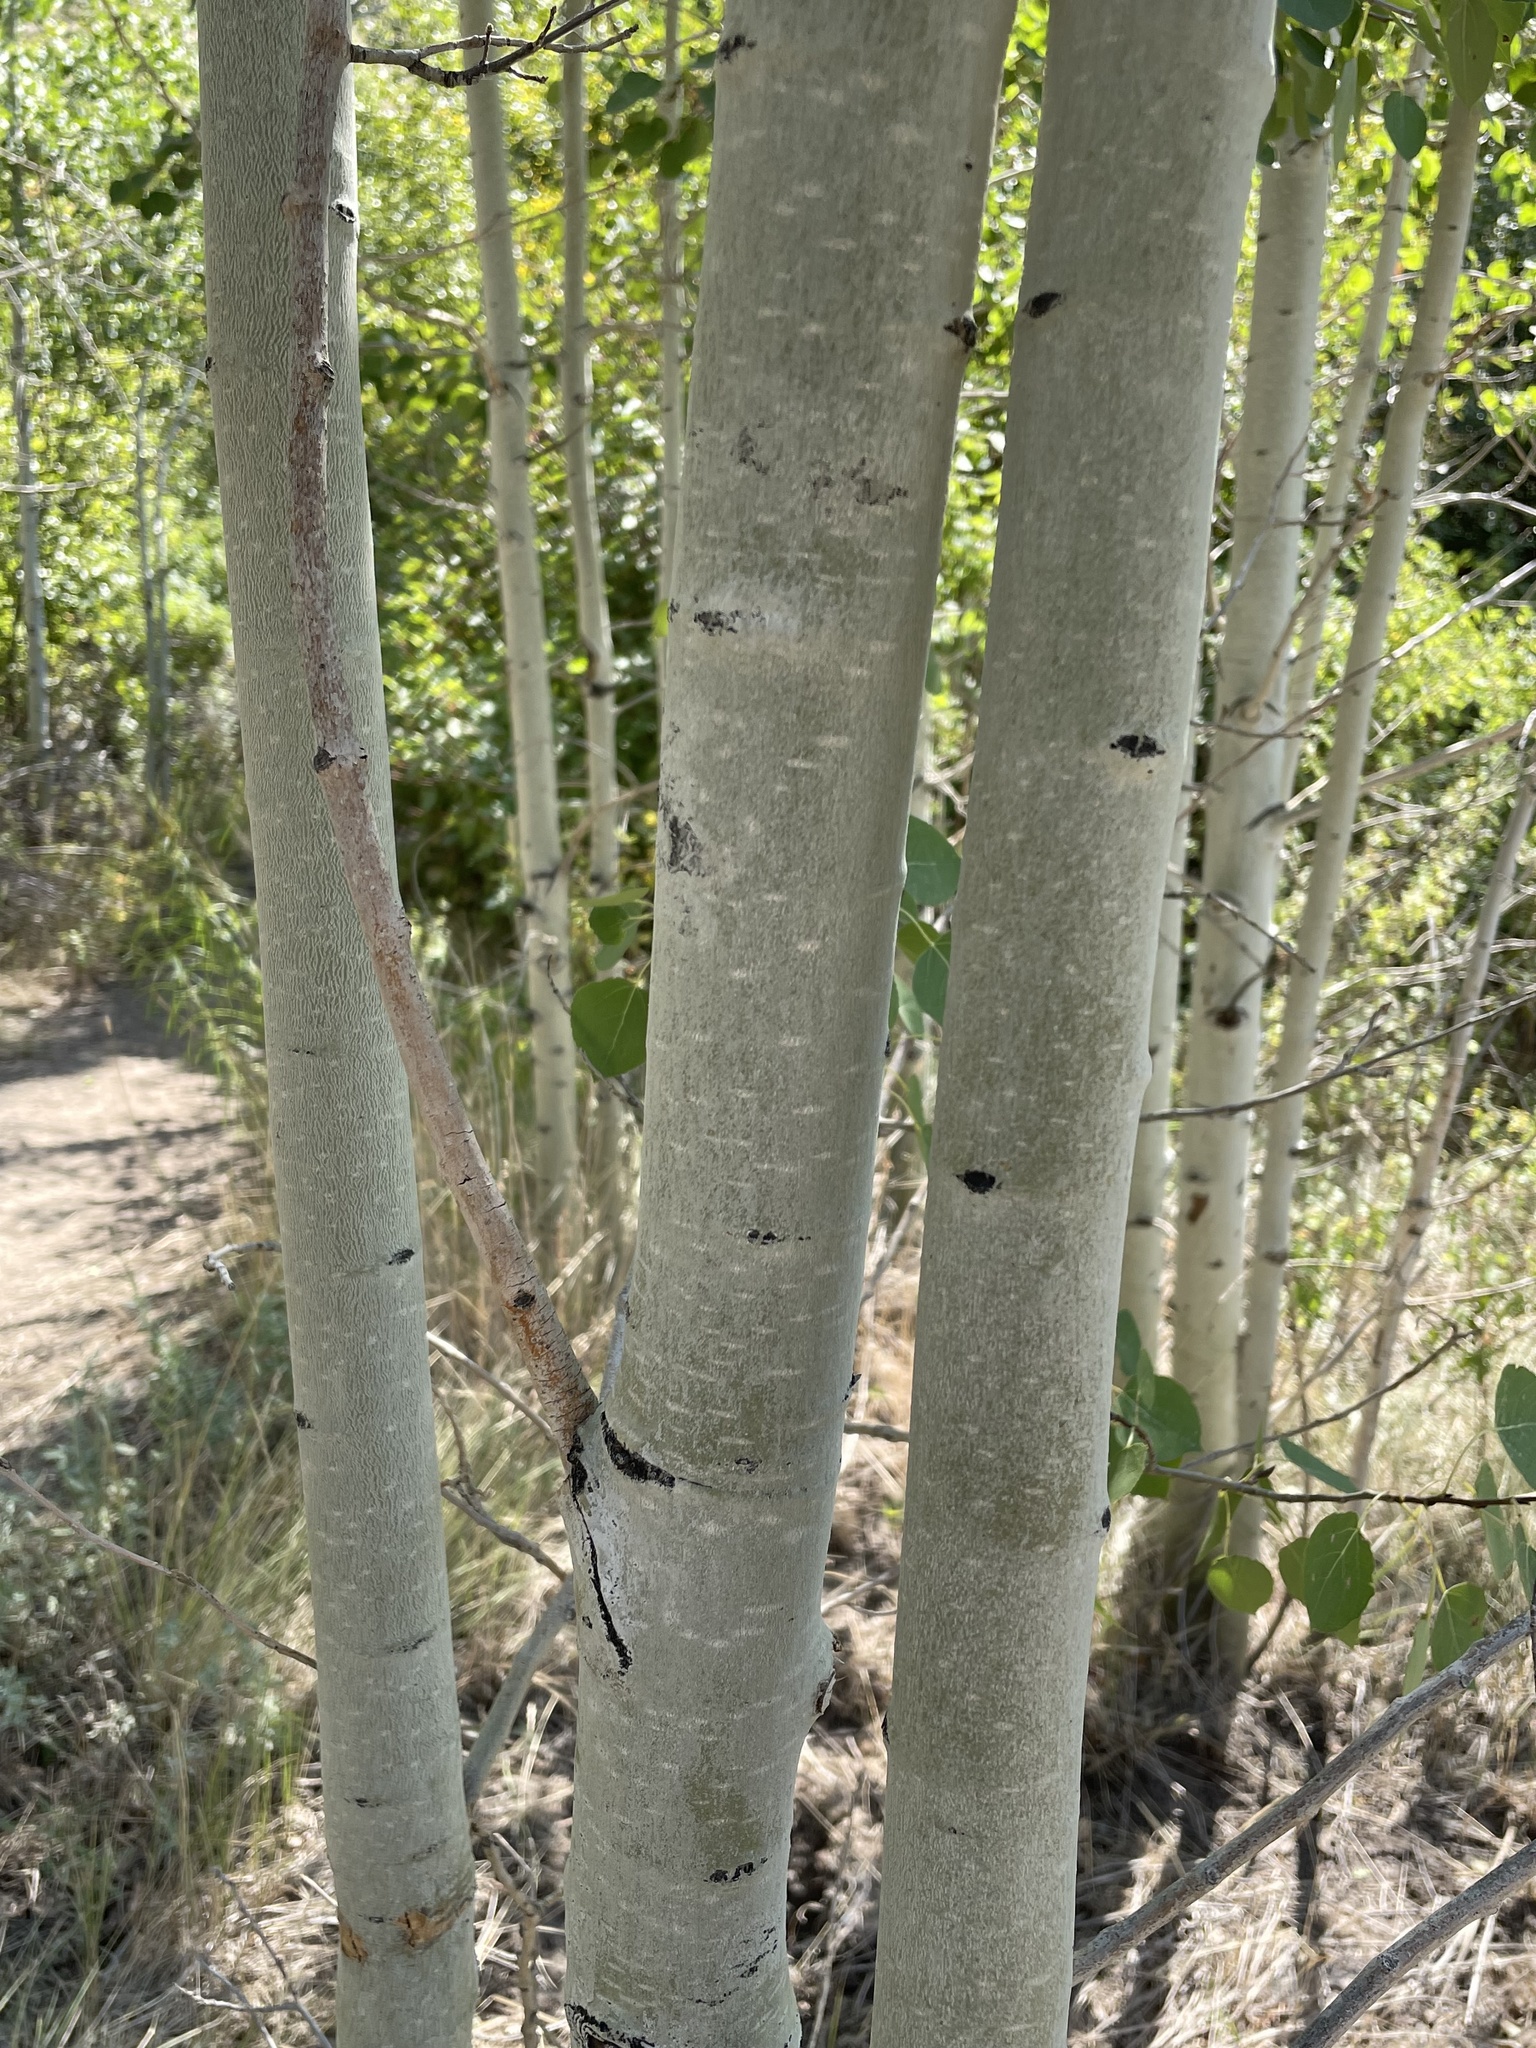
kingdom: Plantae
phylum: Tracheophyta
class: Magnoliopsida
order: Malpighiales
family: Salicaceae
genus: Populus
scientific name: Populus tremuloides
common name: Quaking aspen
